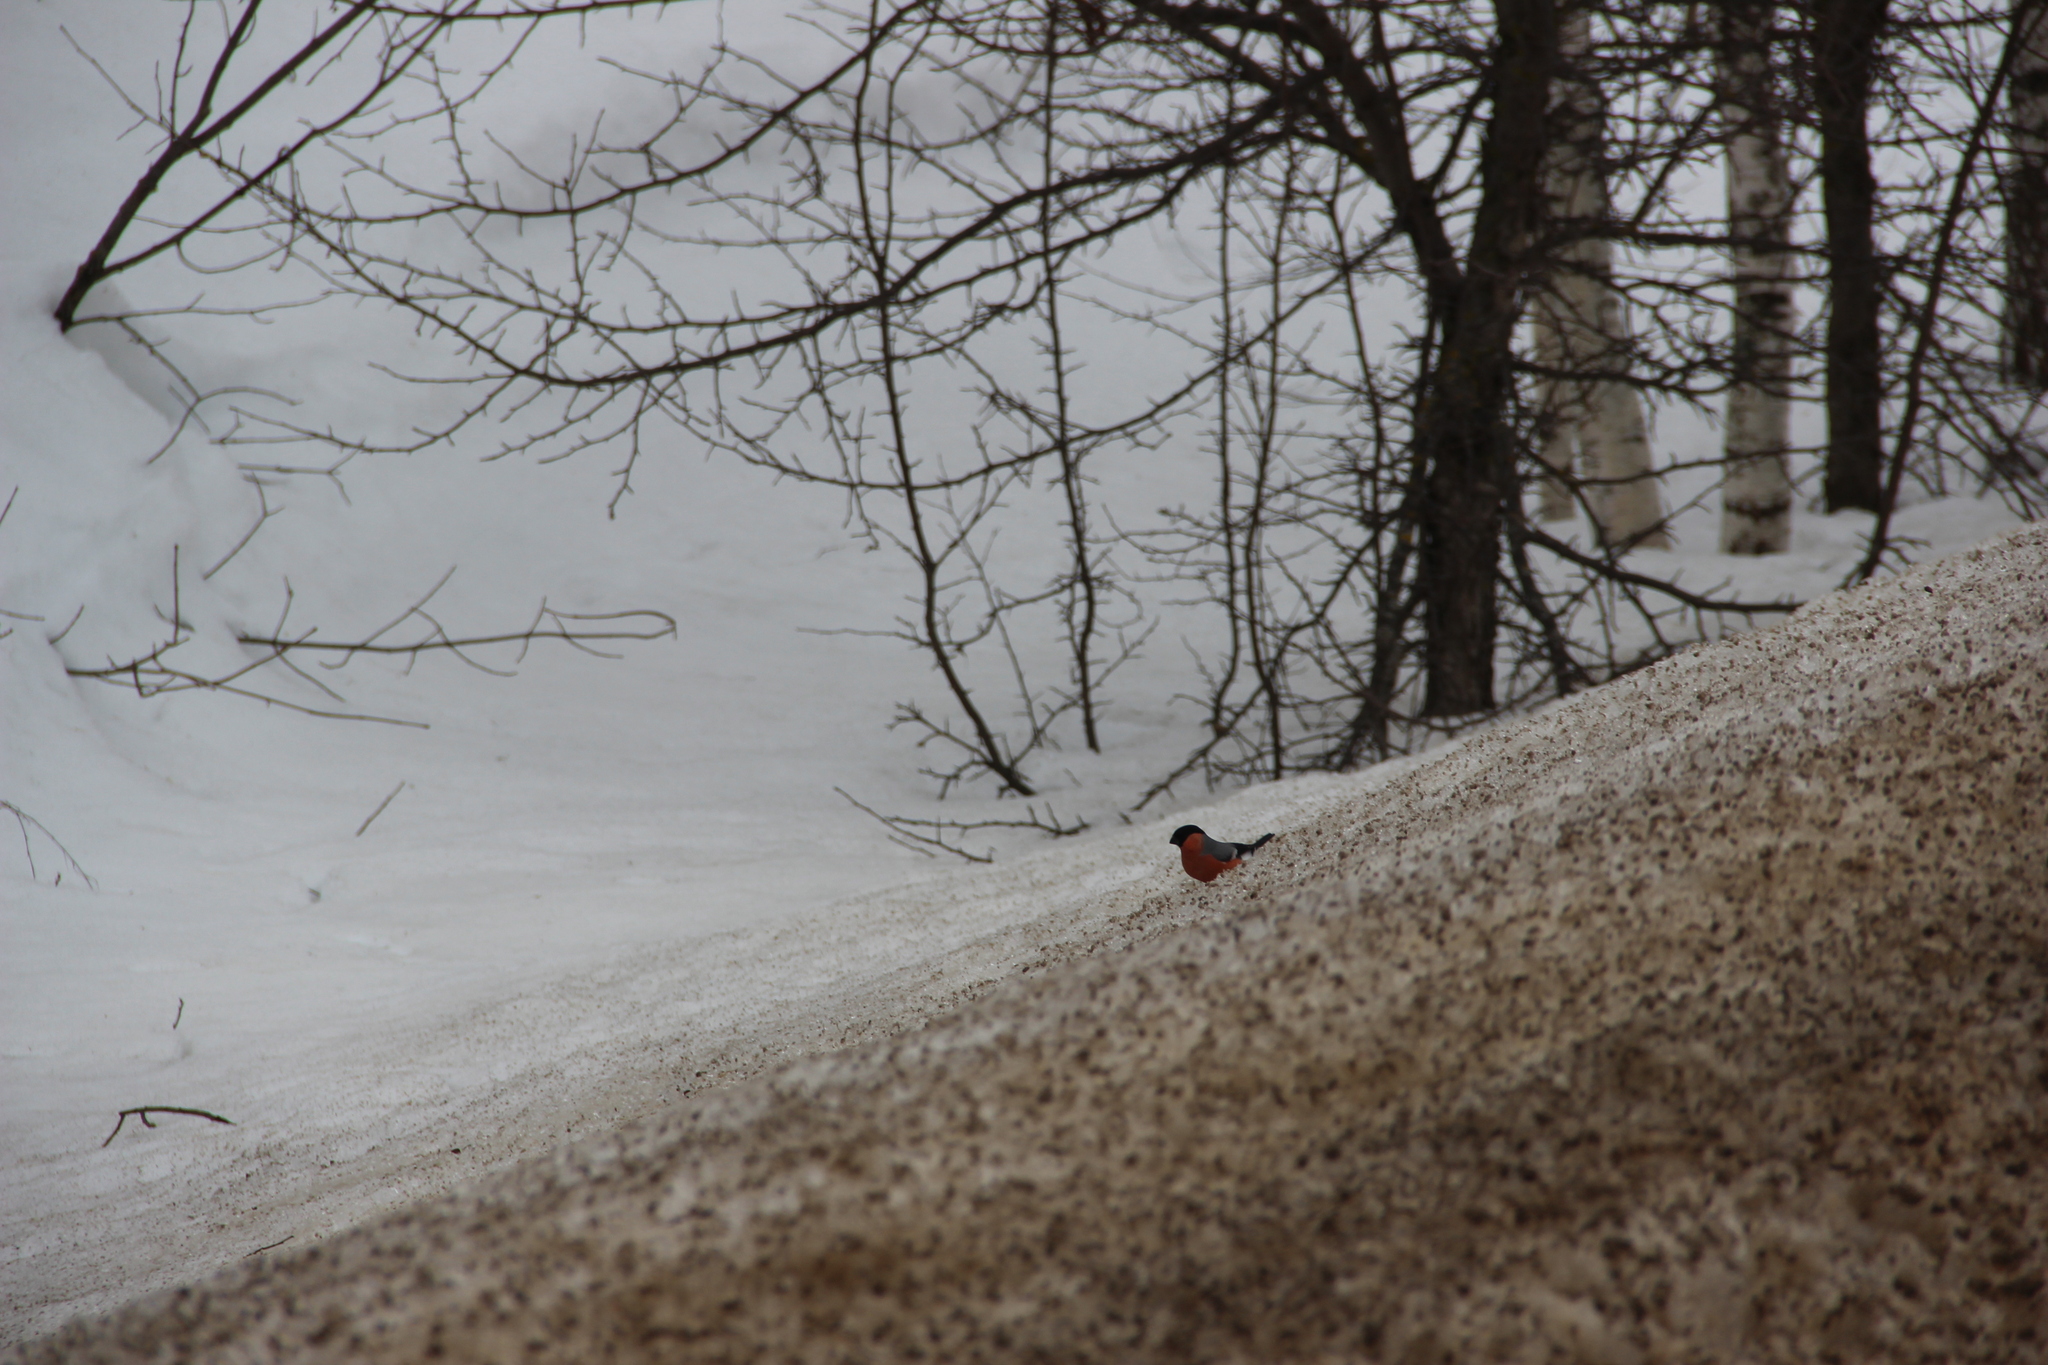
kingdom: Animalia
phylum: Chordata
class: Aves
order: Passeriformes
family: Fringillidae
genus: Pyrrhula
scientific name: Pyrrhula pyrrhula
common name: Eurasian bullfinch
